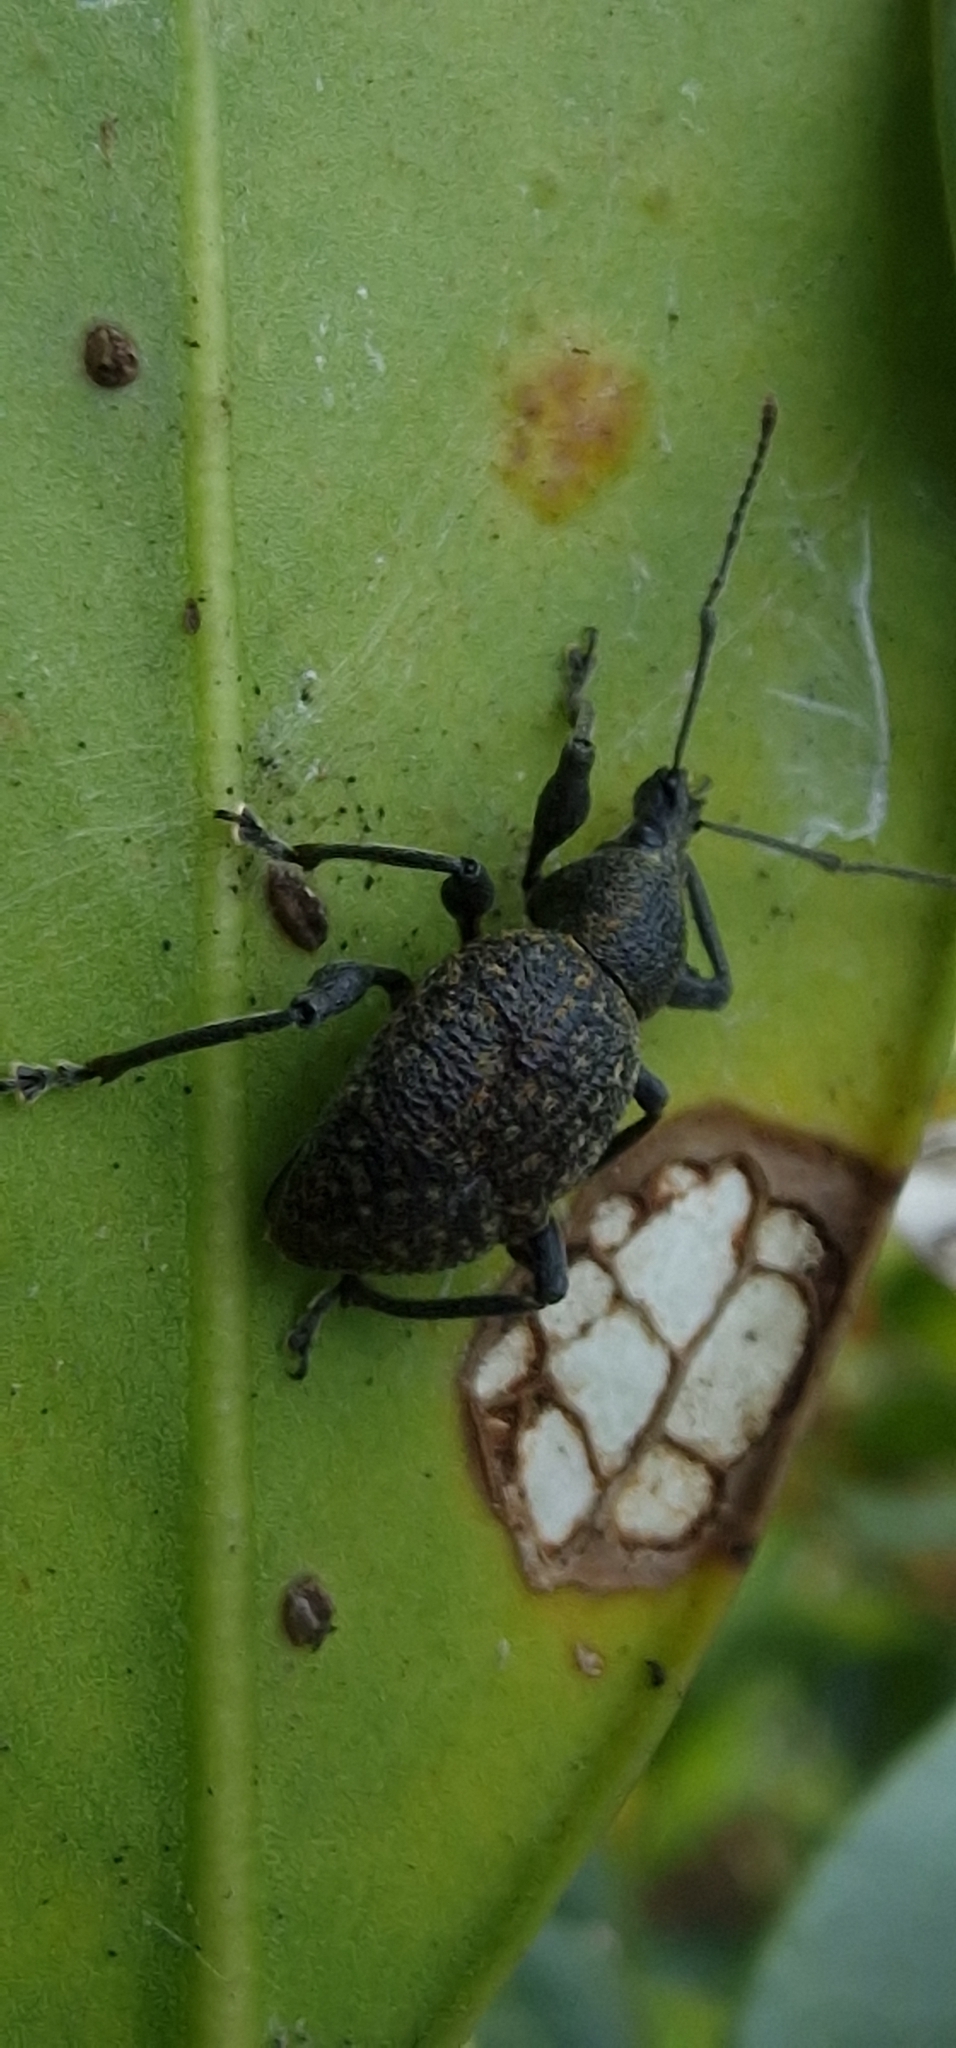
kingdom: Animalia
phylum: Arthropoda
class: Insecta
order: Coleoptera
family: Curculionidae
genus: Otiorhynchus
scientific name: Otiorhynchus armadillo
